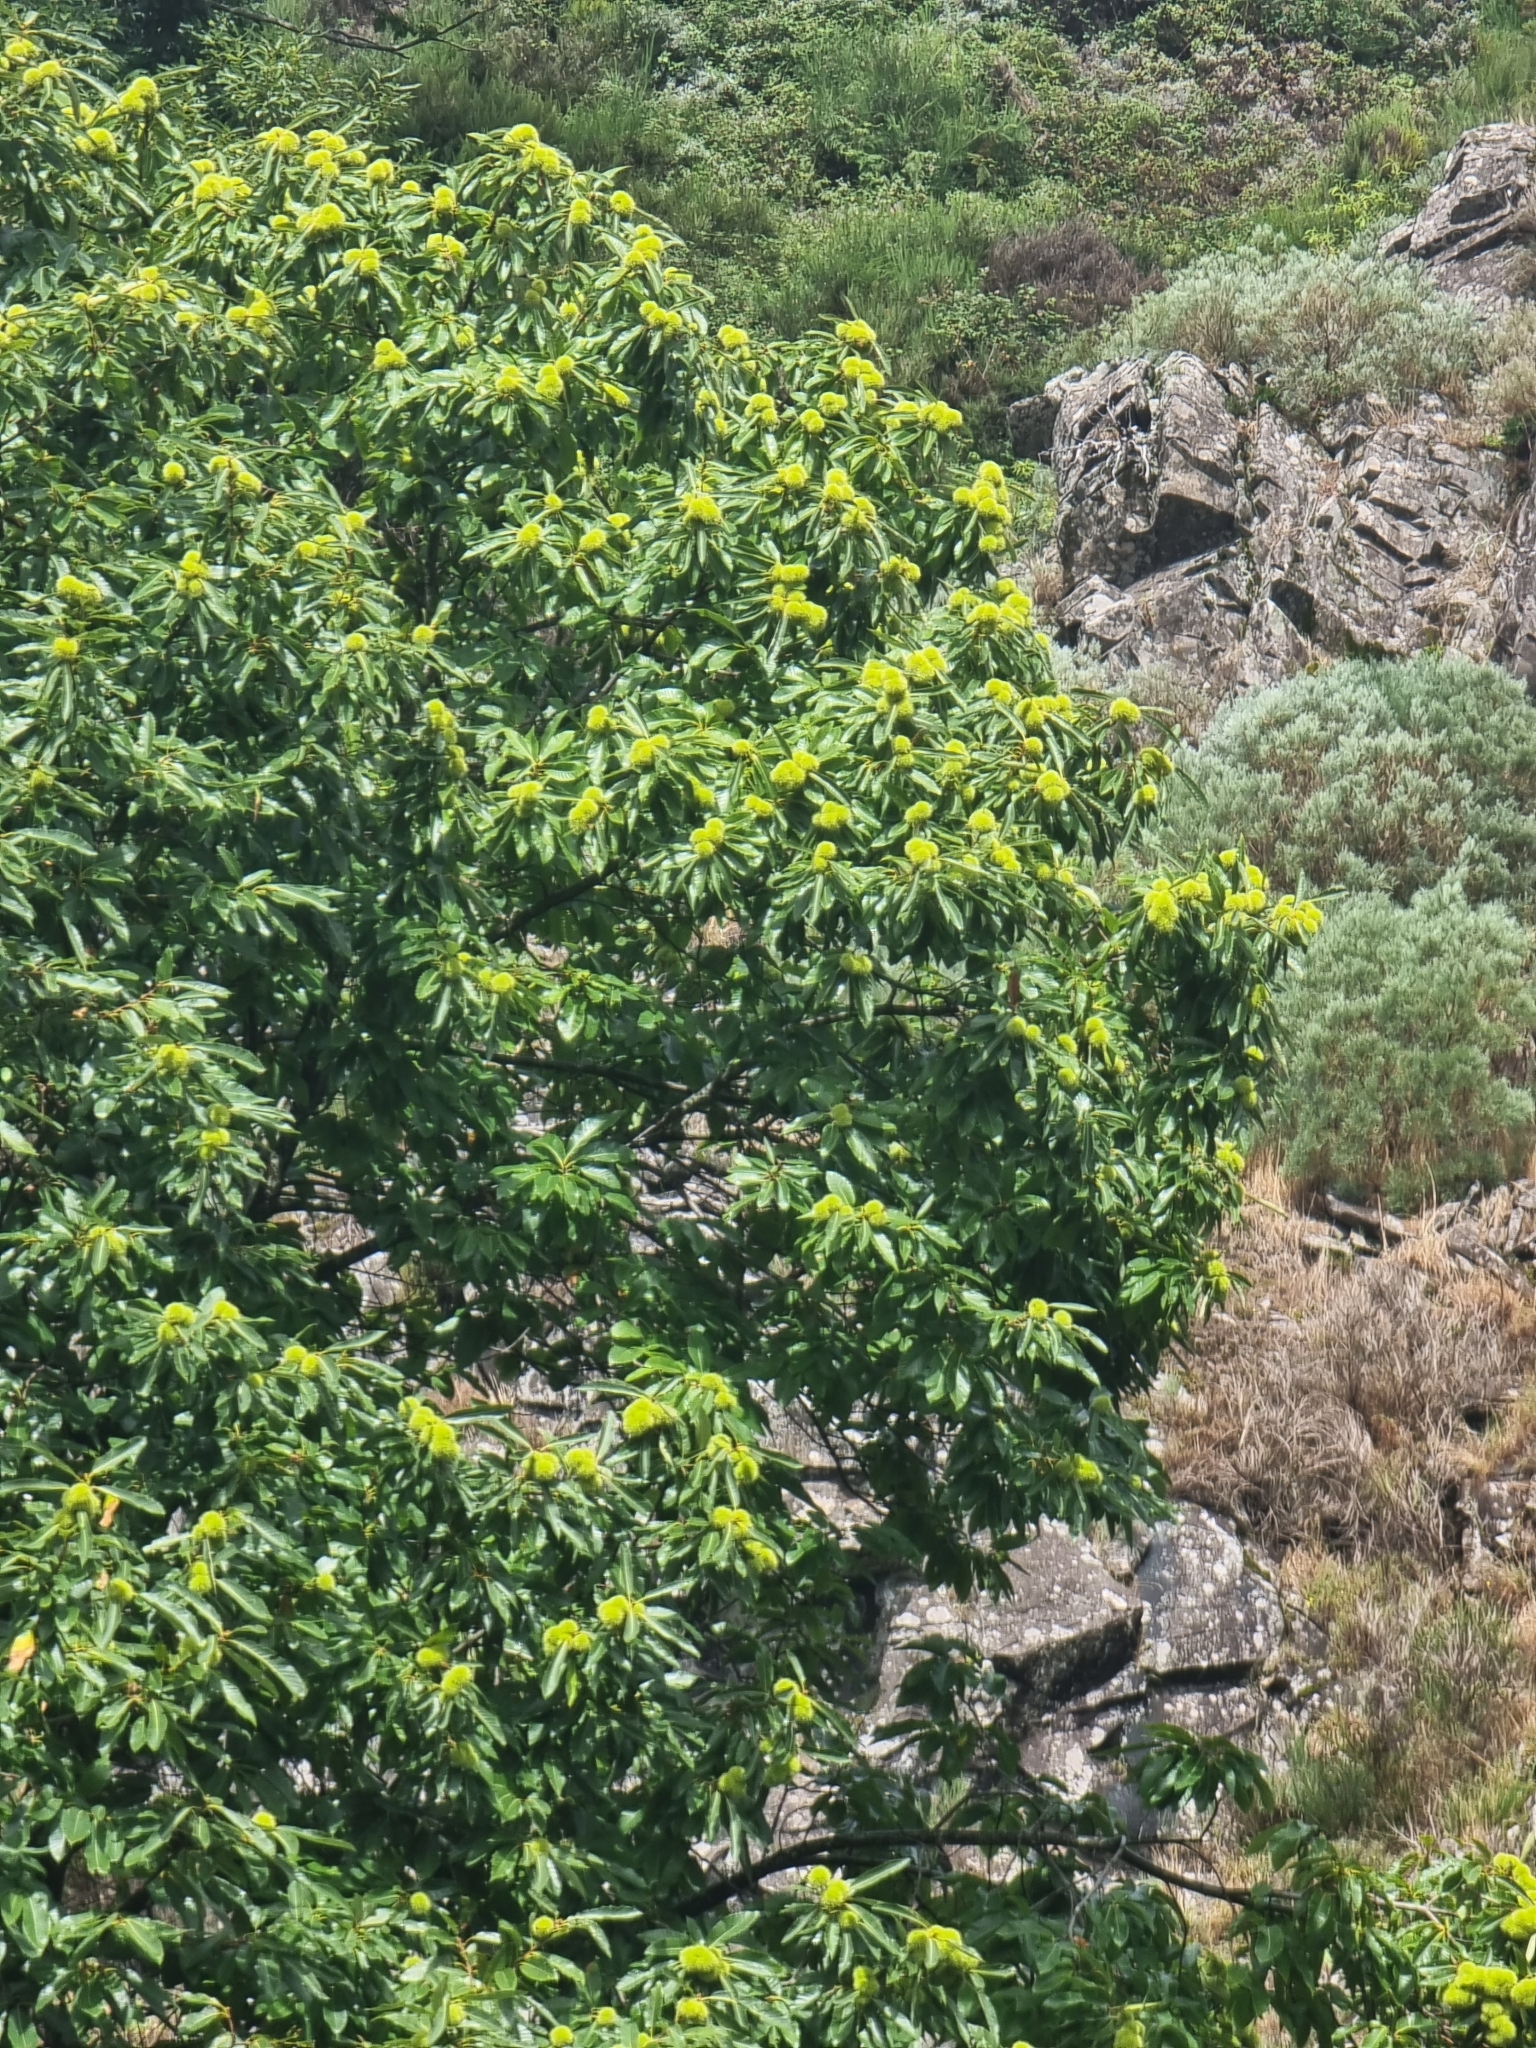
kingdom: Plantae
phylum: Tracheophyta
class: Magnoliopsida
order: Fagales
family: Fagaceae
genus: Castanea
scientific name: Castanea sativa
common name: Sweet chestnut
